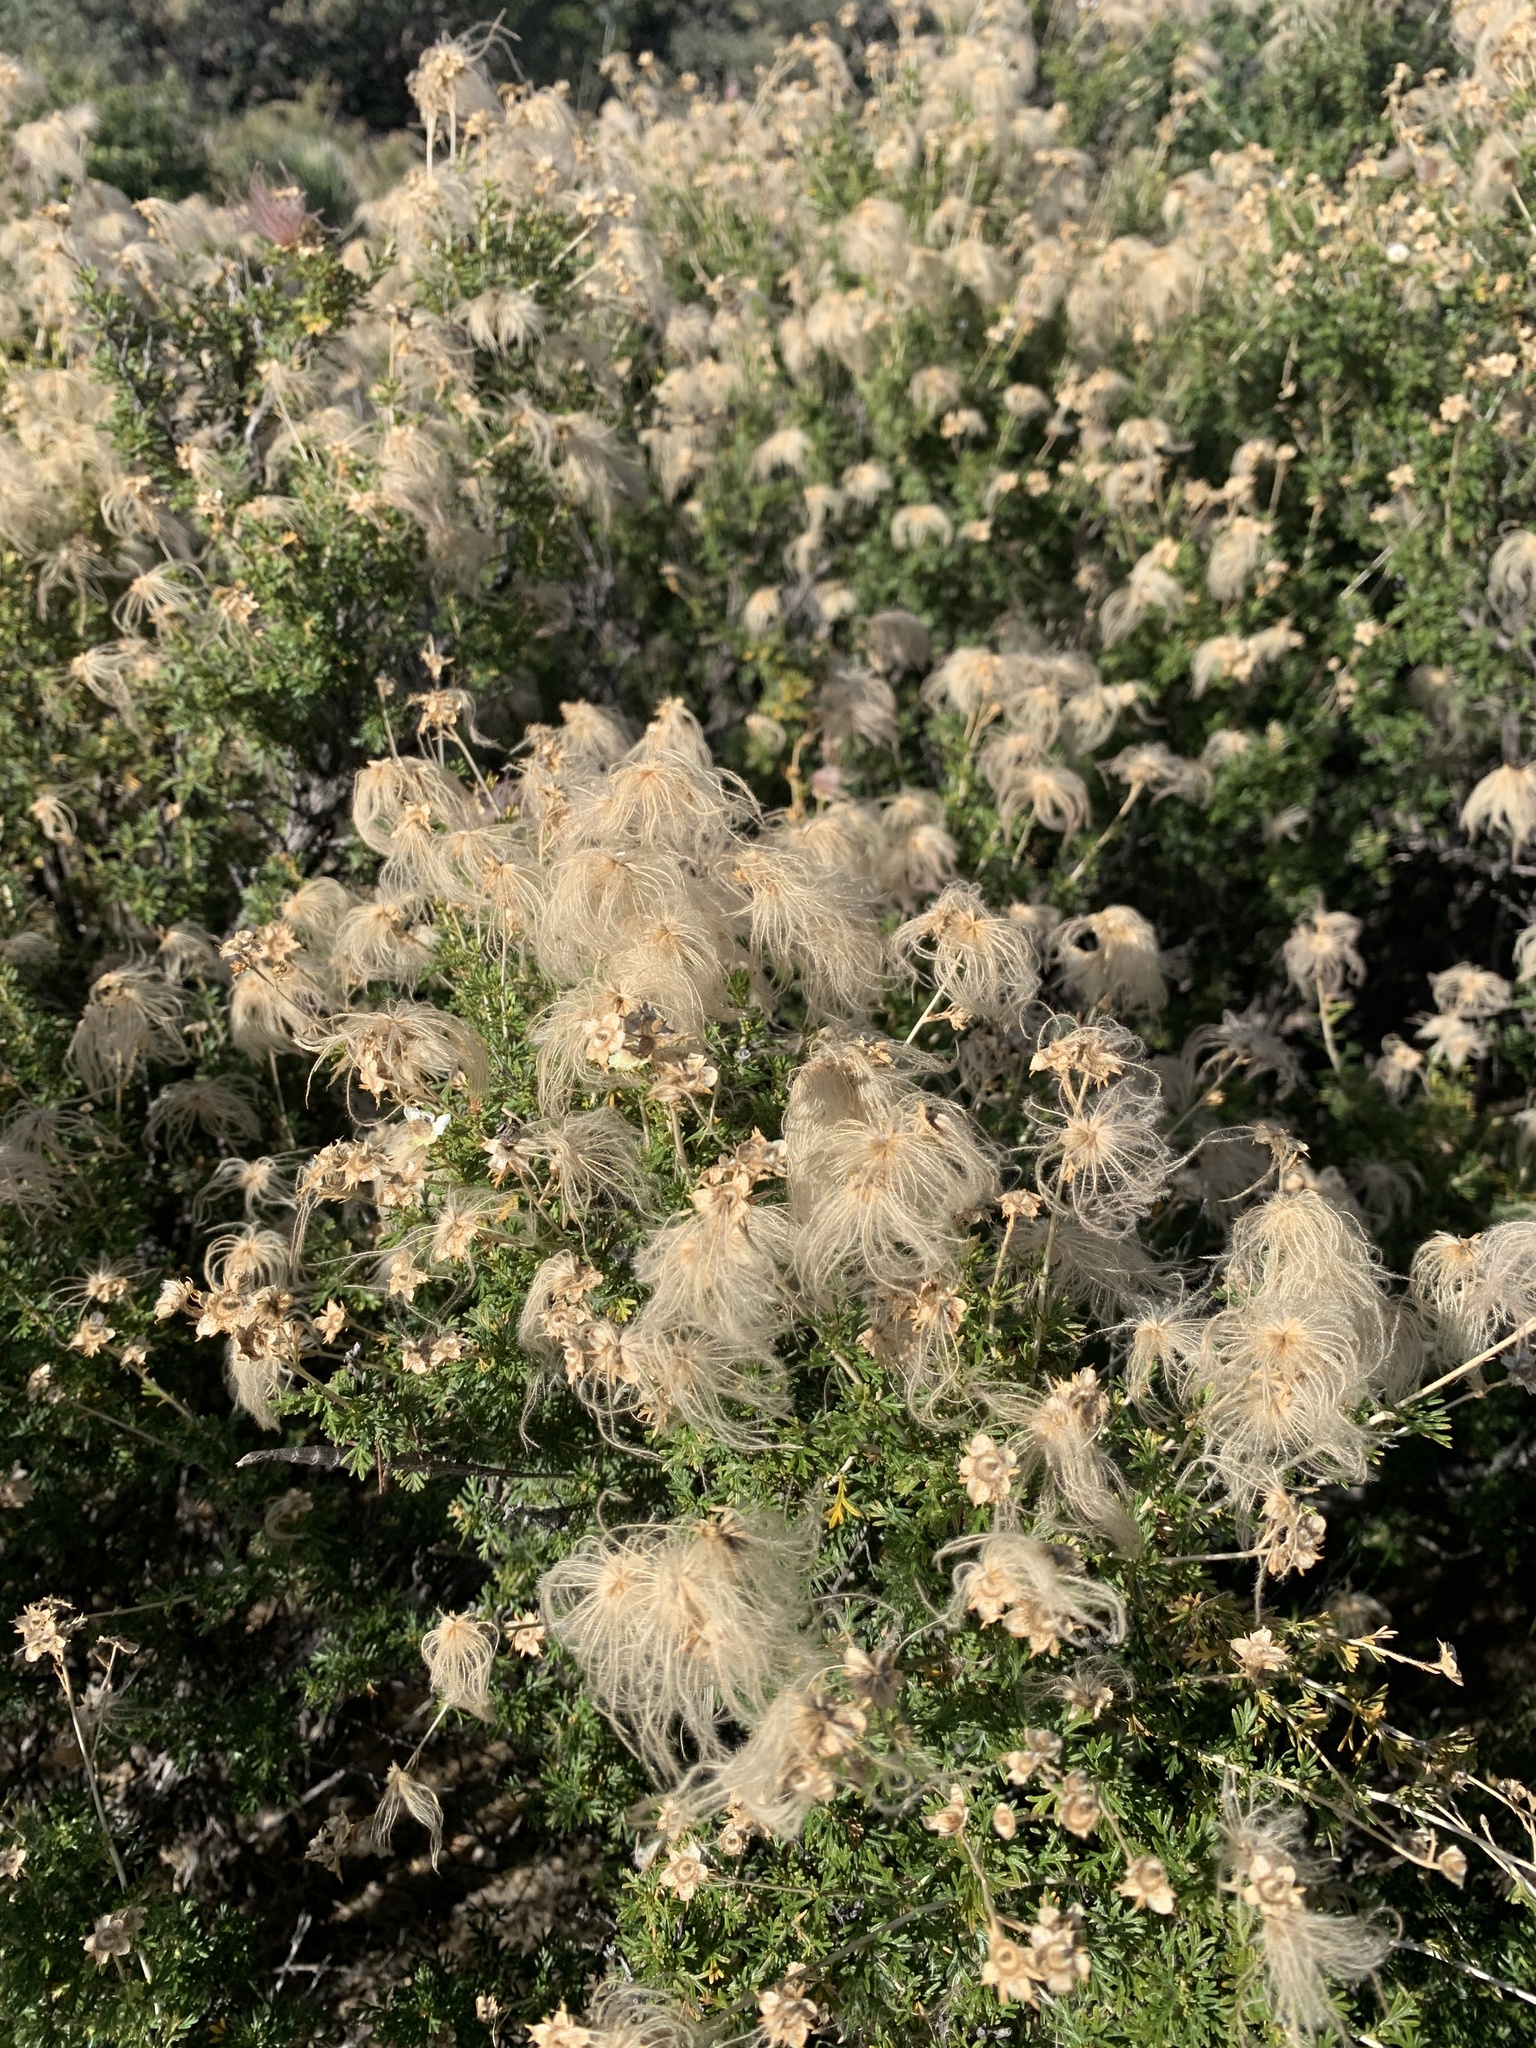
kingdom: Plantae
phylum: Tracheophyta
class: Magnoliopsida
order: Rosales
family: Rosaceae
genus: Fallugia
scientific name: Fallugia paradoxa
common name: Apache-plume
